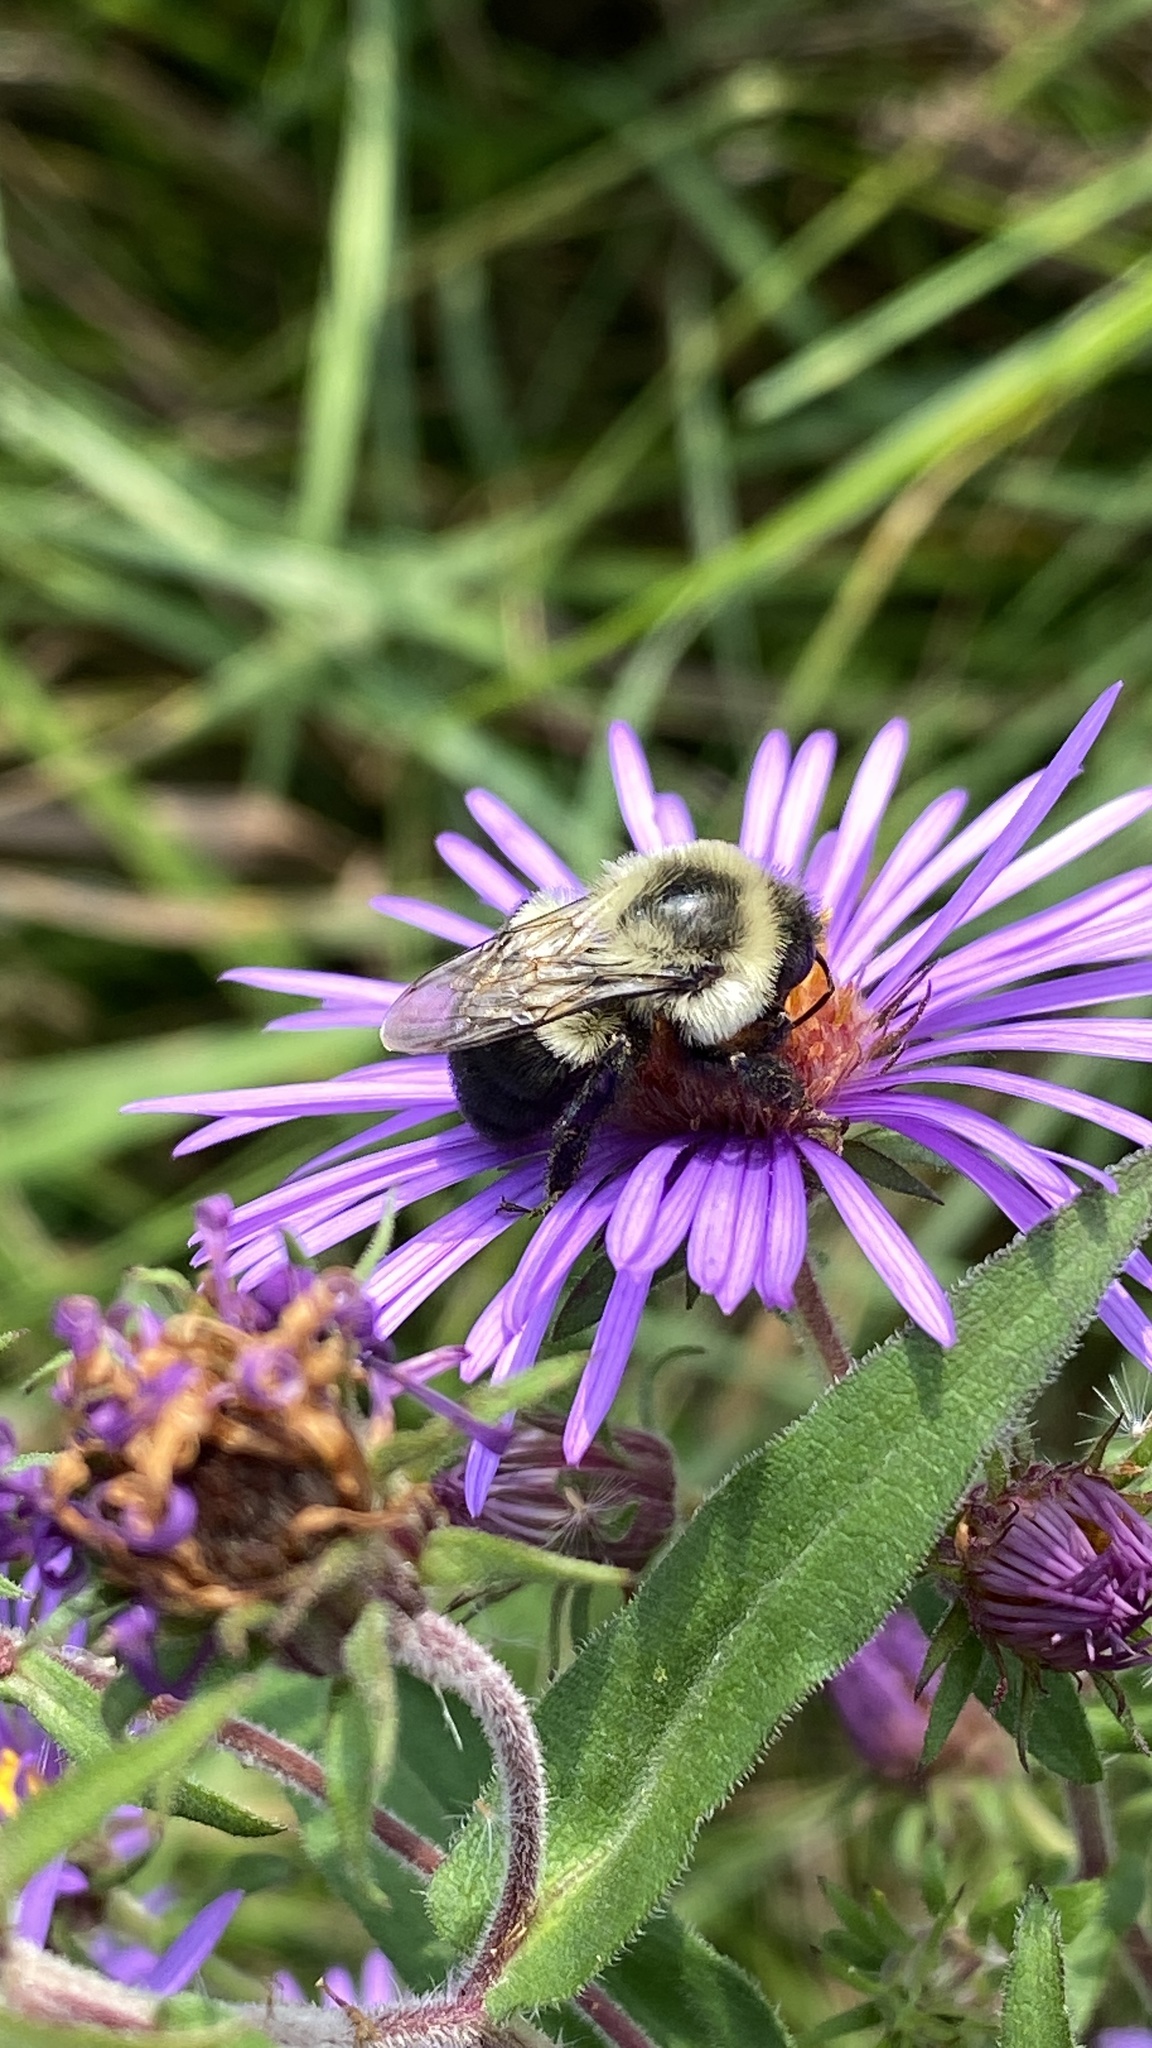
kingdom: Animalia
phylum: Arthropoda
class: Insecta
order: Hymenoptera
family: Apidae
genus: Bombus
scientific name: Bombus impatiens
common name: Common eastern bumble bee
